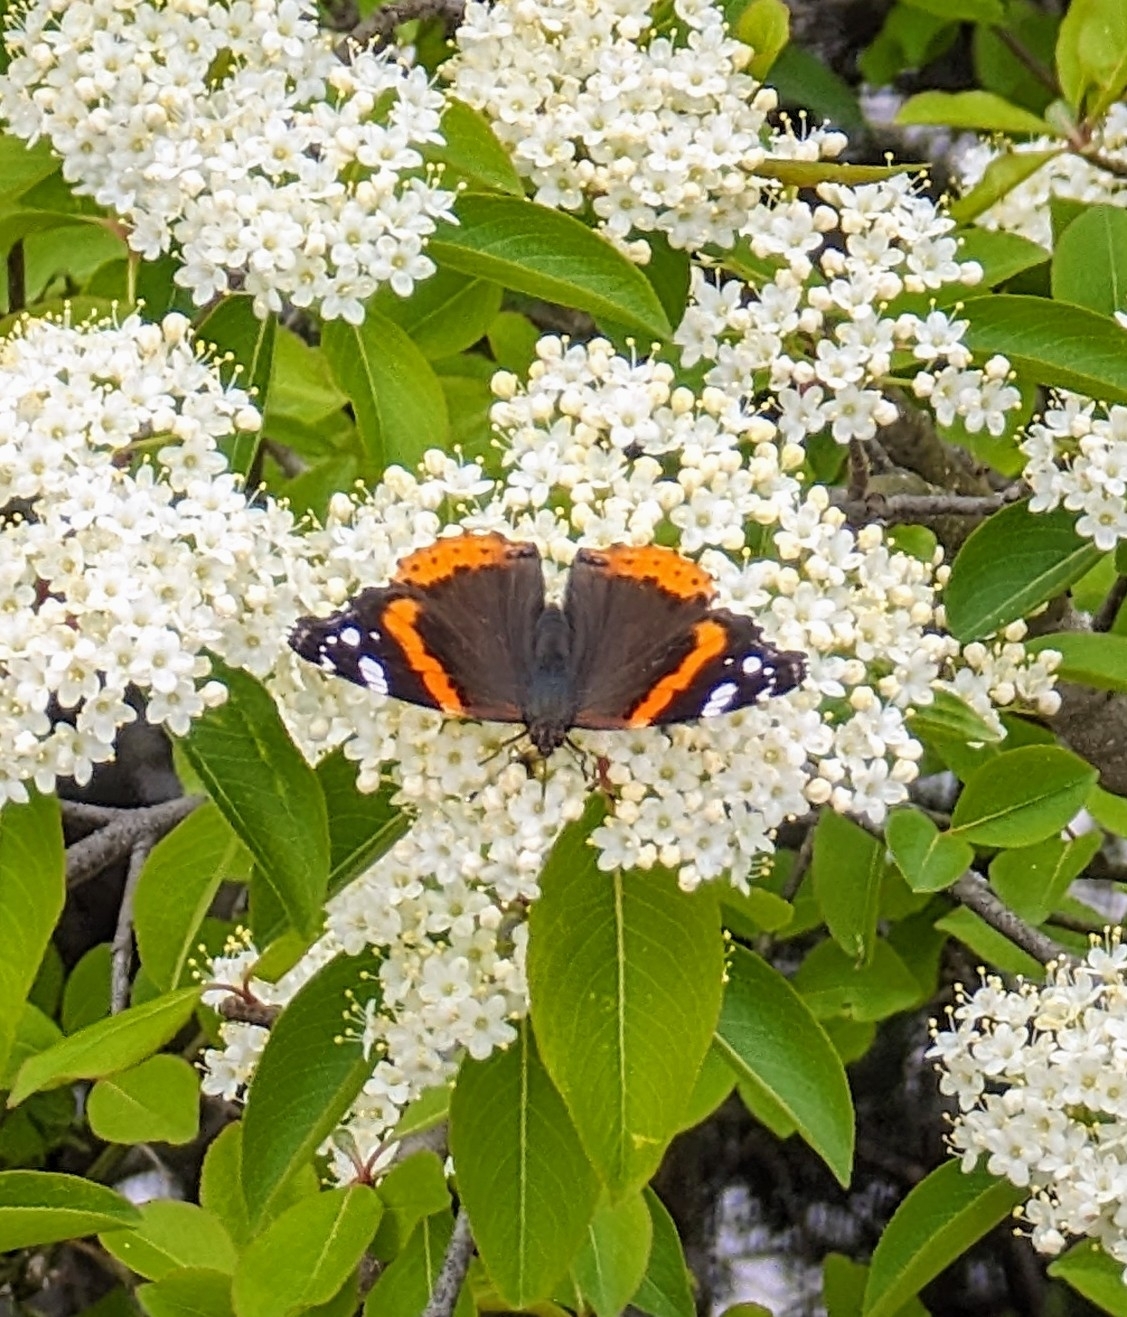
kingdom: Animalia
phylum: Arthropoda
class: Insecta
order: Lepidoptera
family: Nymphalidae
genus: Vanessa
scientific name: Vanessa atalanta
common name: Red admiral
